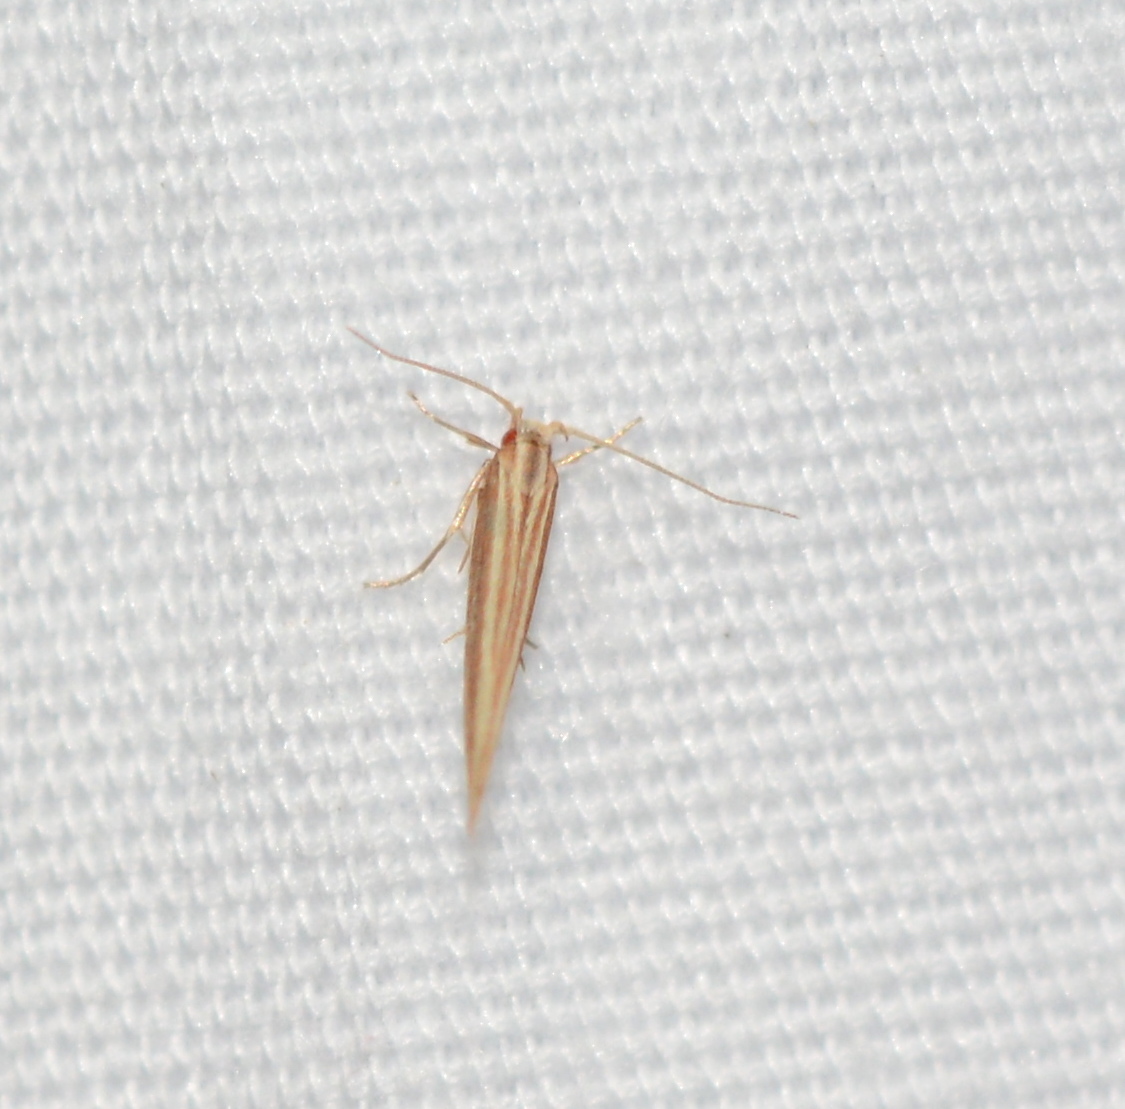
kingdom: Animalia
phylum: Arthropoda
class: Insecta
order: Lepidoptera
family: Cosmopterigidae
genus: Pyroderces
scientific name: Pyroderces albistrigella
